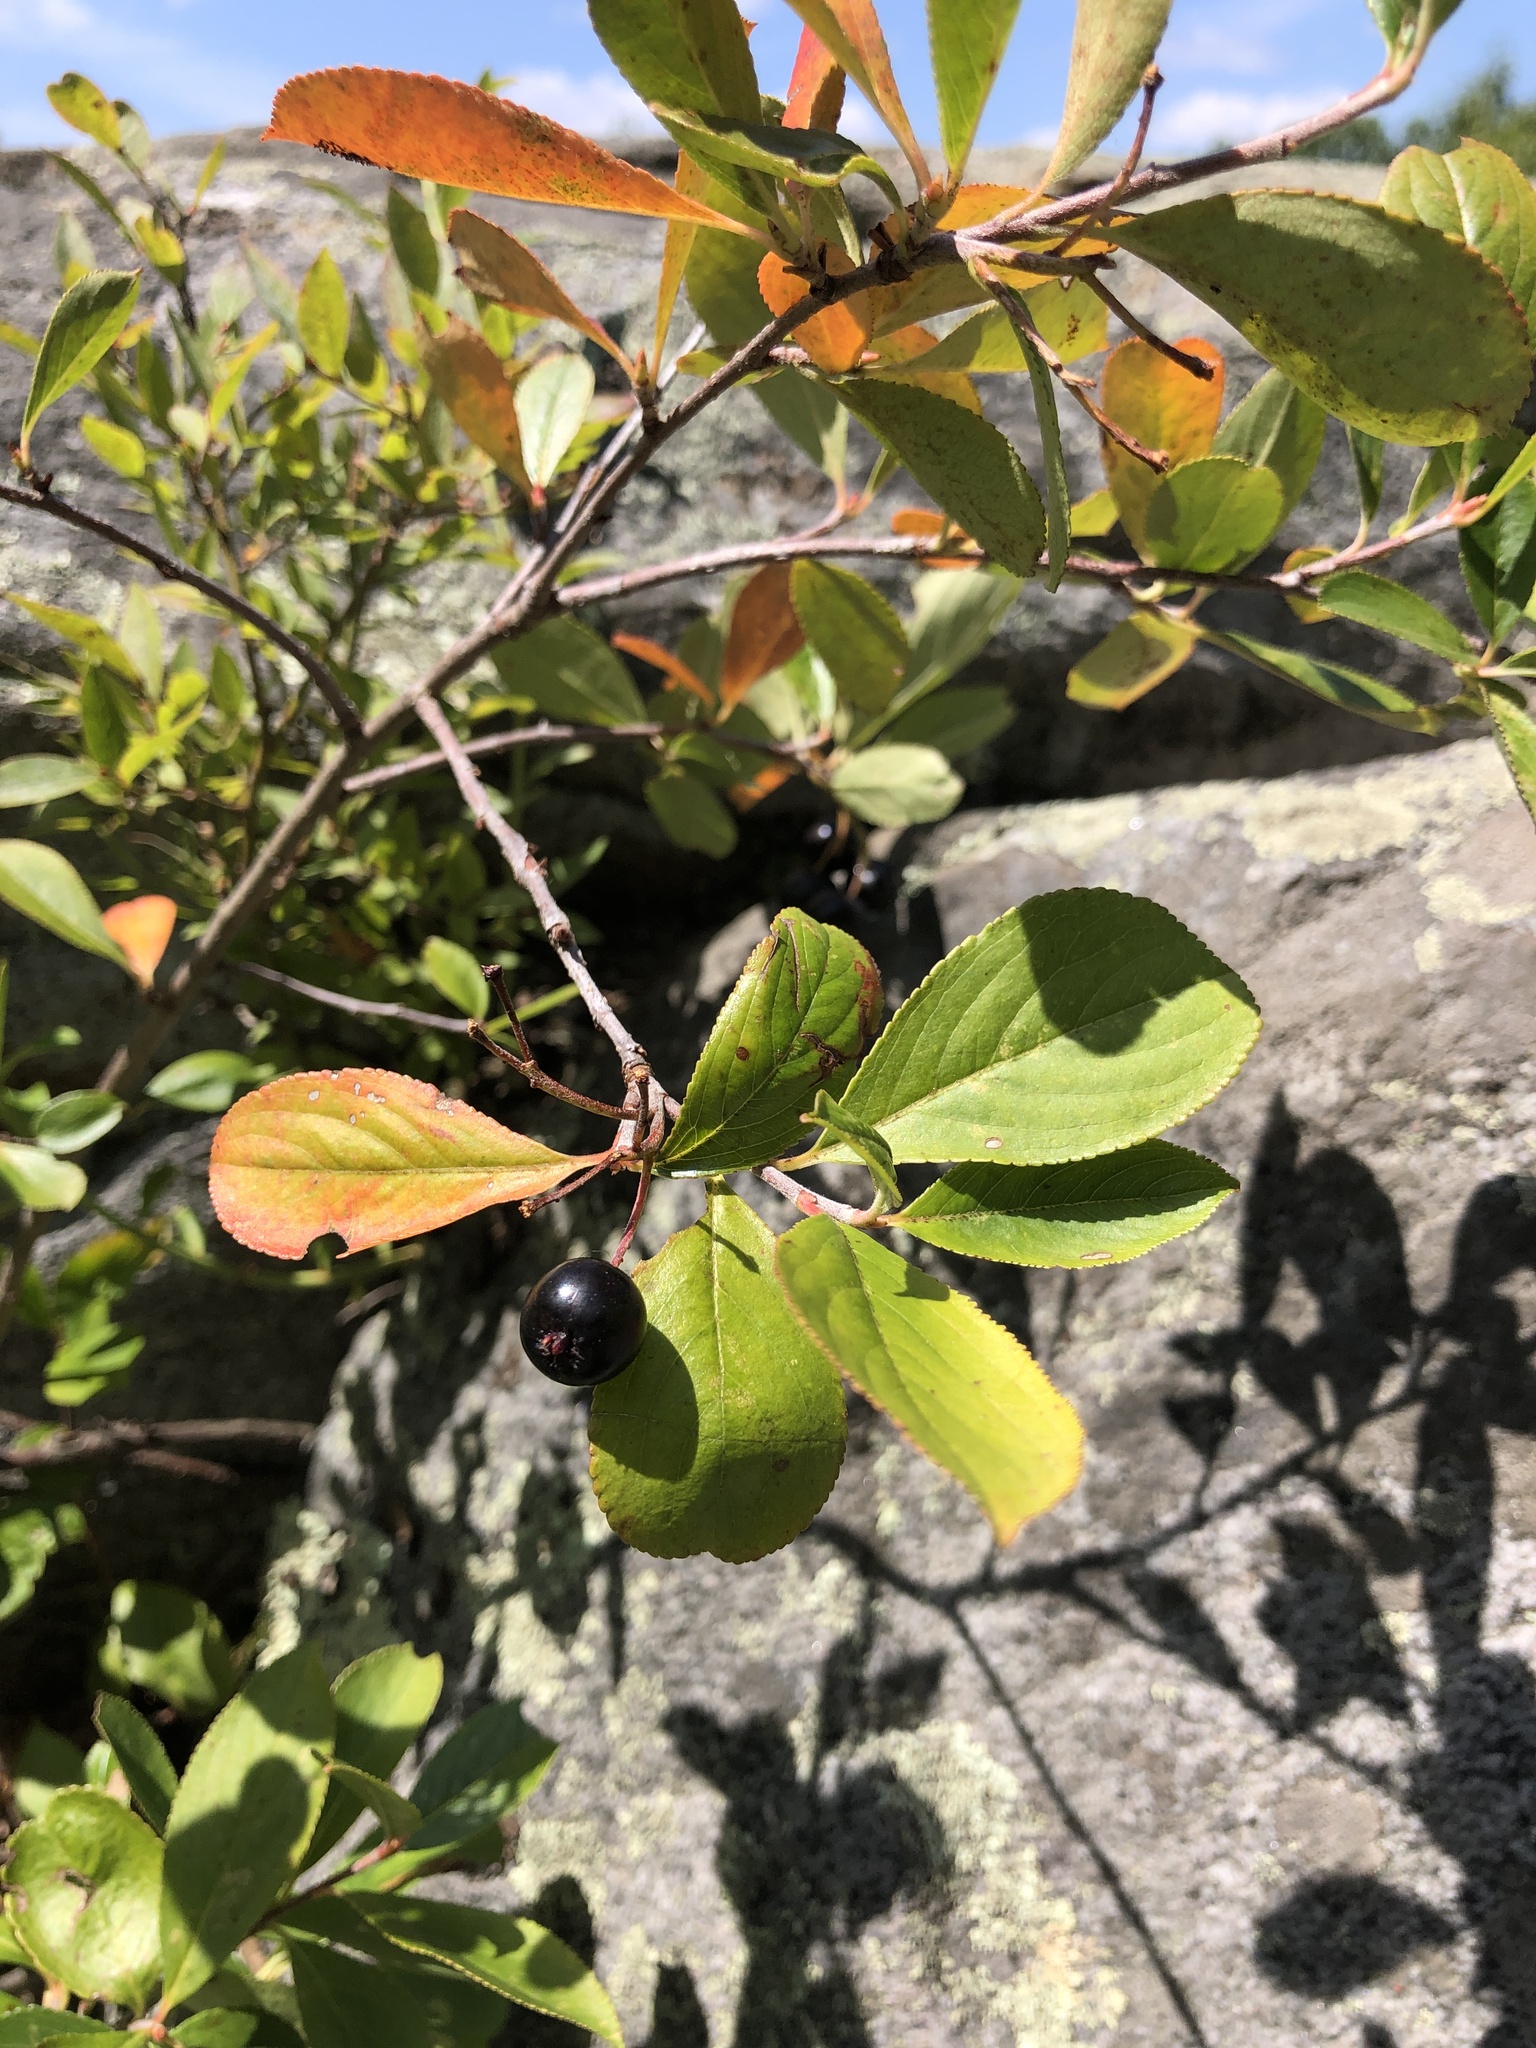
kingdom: Plantae
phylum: Tracheophyta
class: Magnoliopsida
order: Rosales
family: Rosaceae
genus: Aronia
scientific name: Aronia melanocarpa
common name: Black chokeberry
